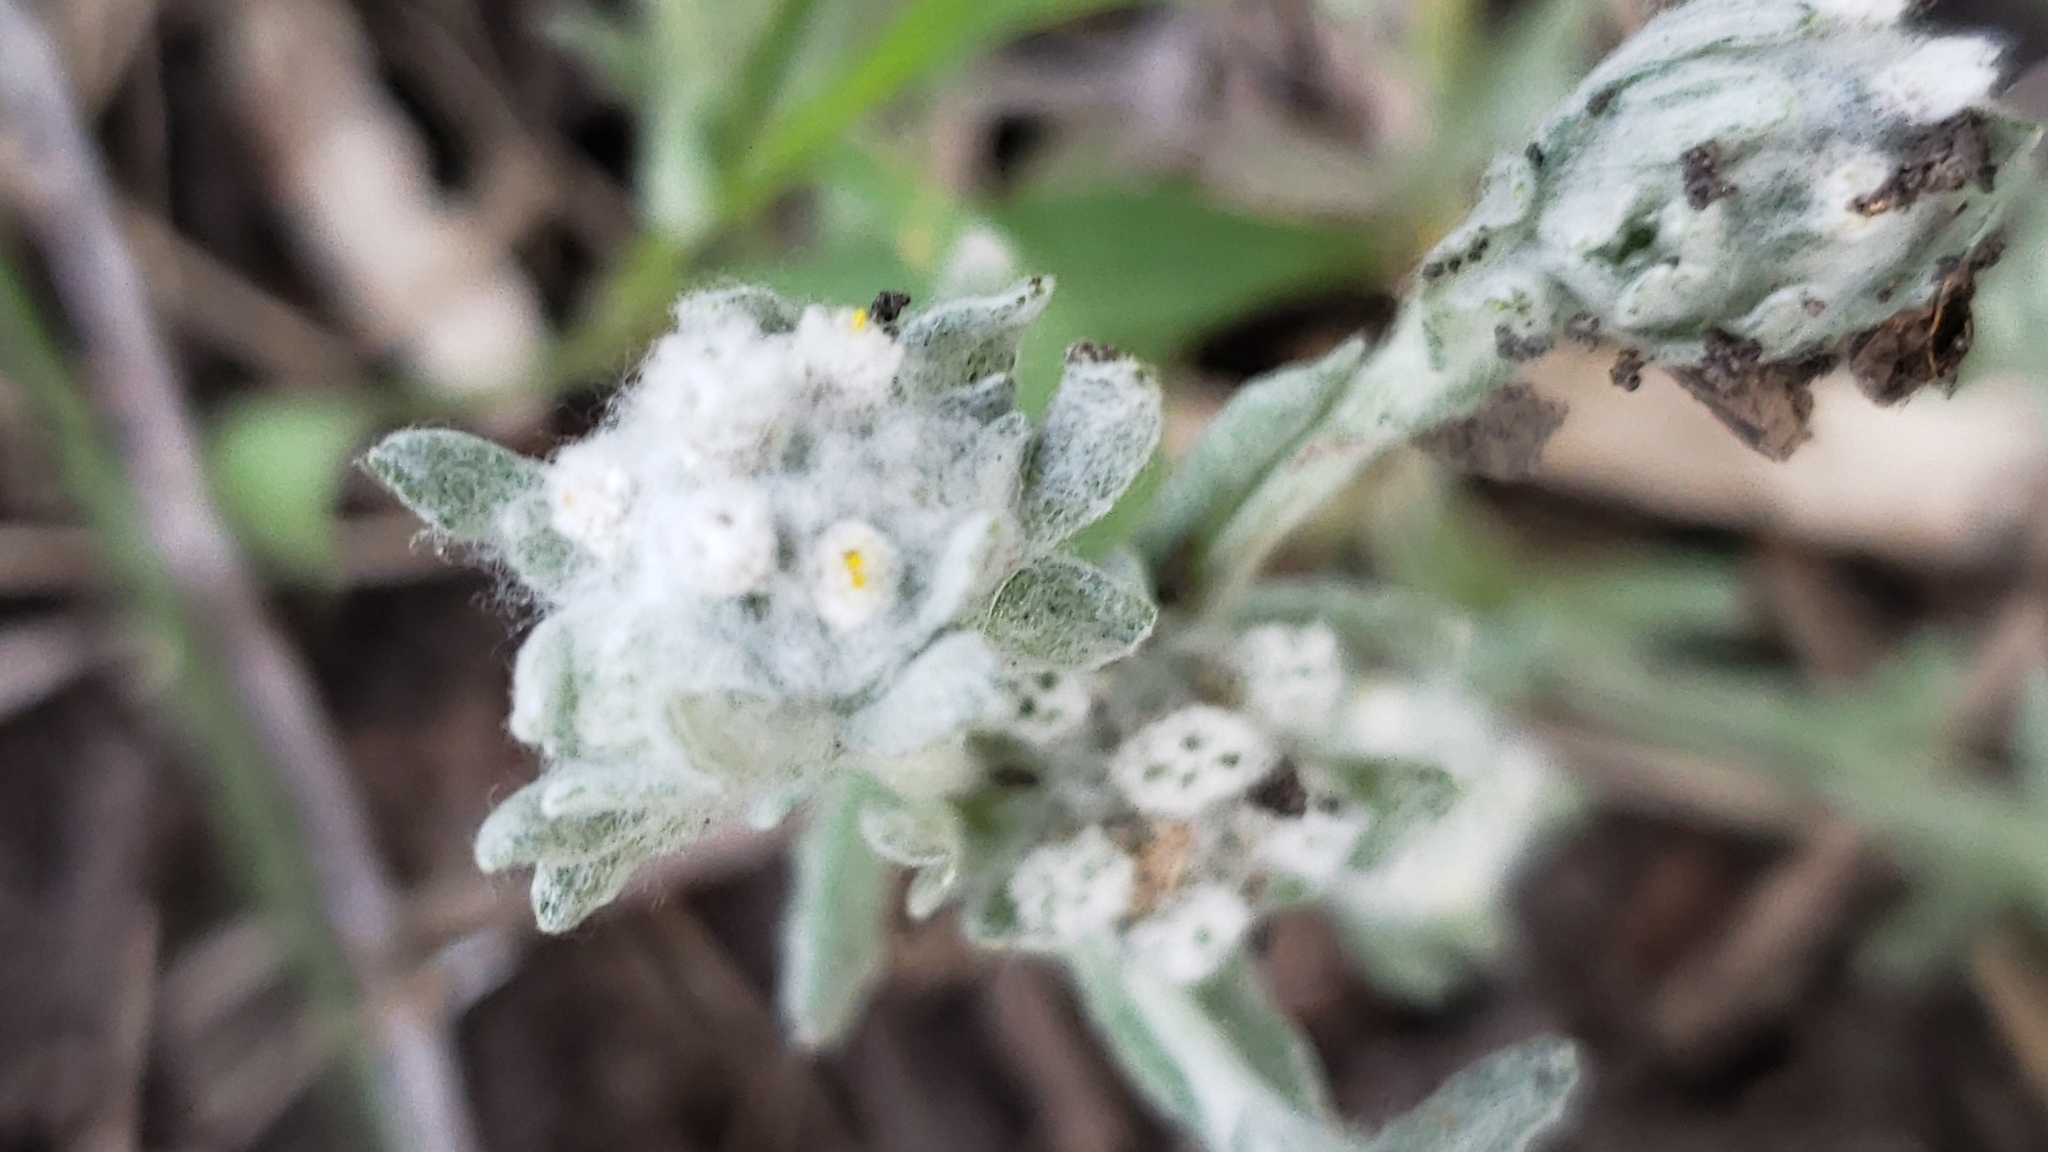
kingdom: Plantae
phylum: Tracheophyta
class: Magnoliopsida
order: Asterales
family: Asteraceae
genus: Diaperia
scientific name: Diaperia verna
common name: Many-stem rabbit-tobacco
